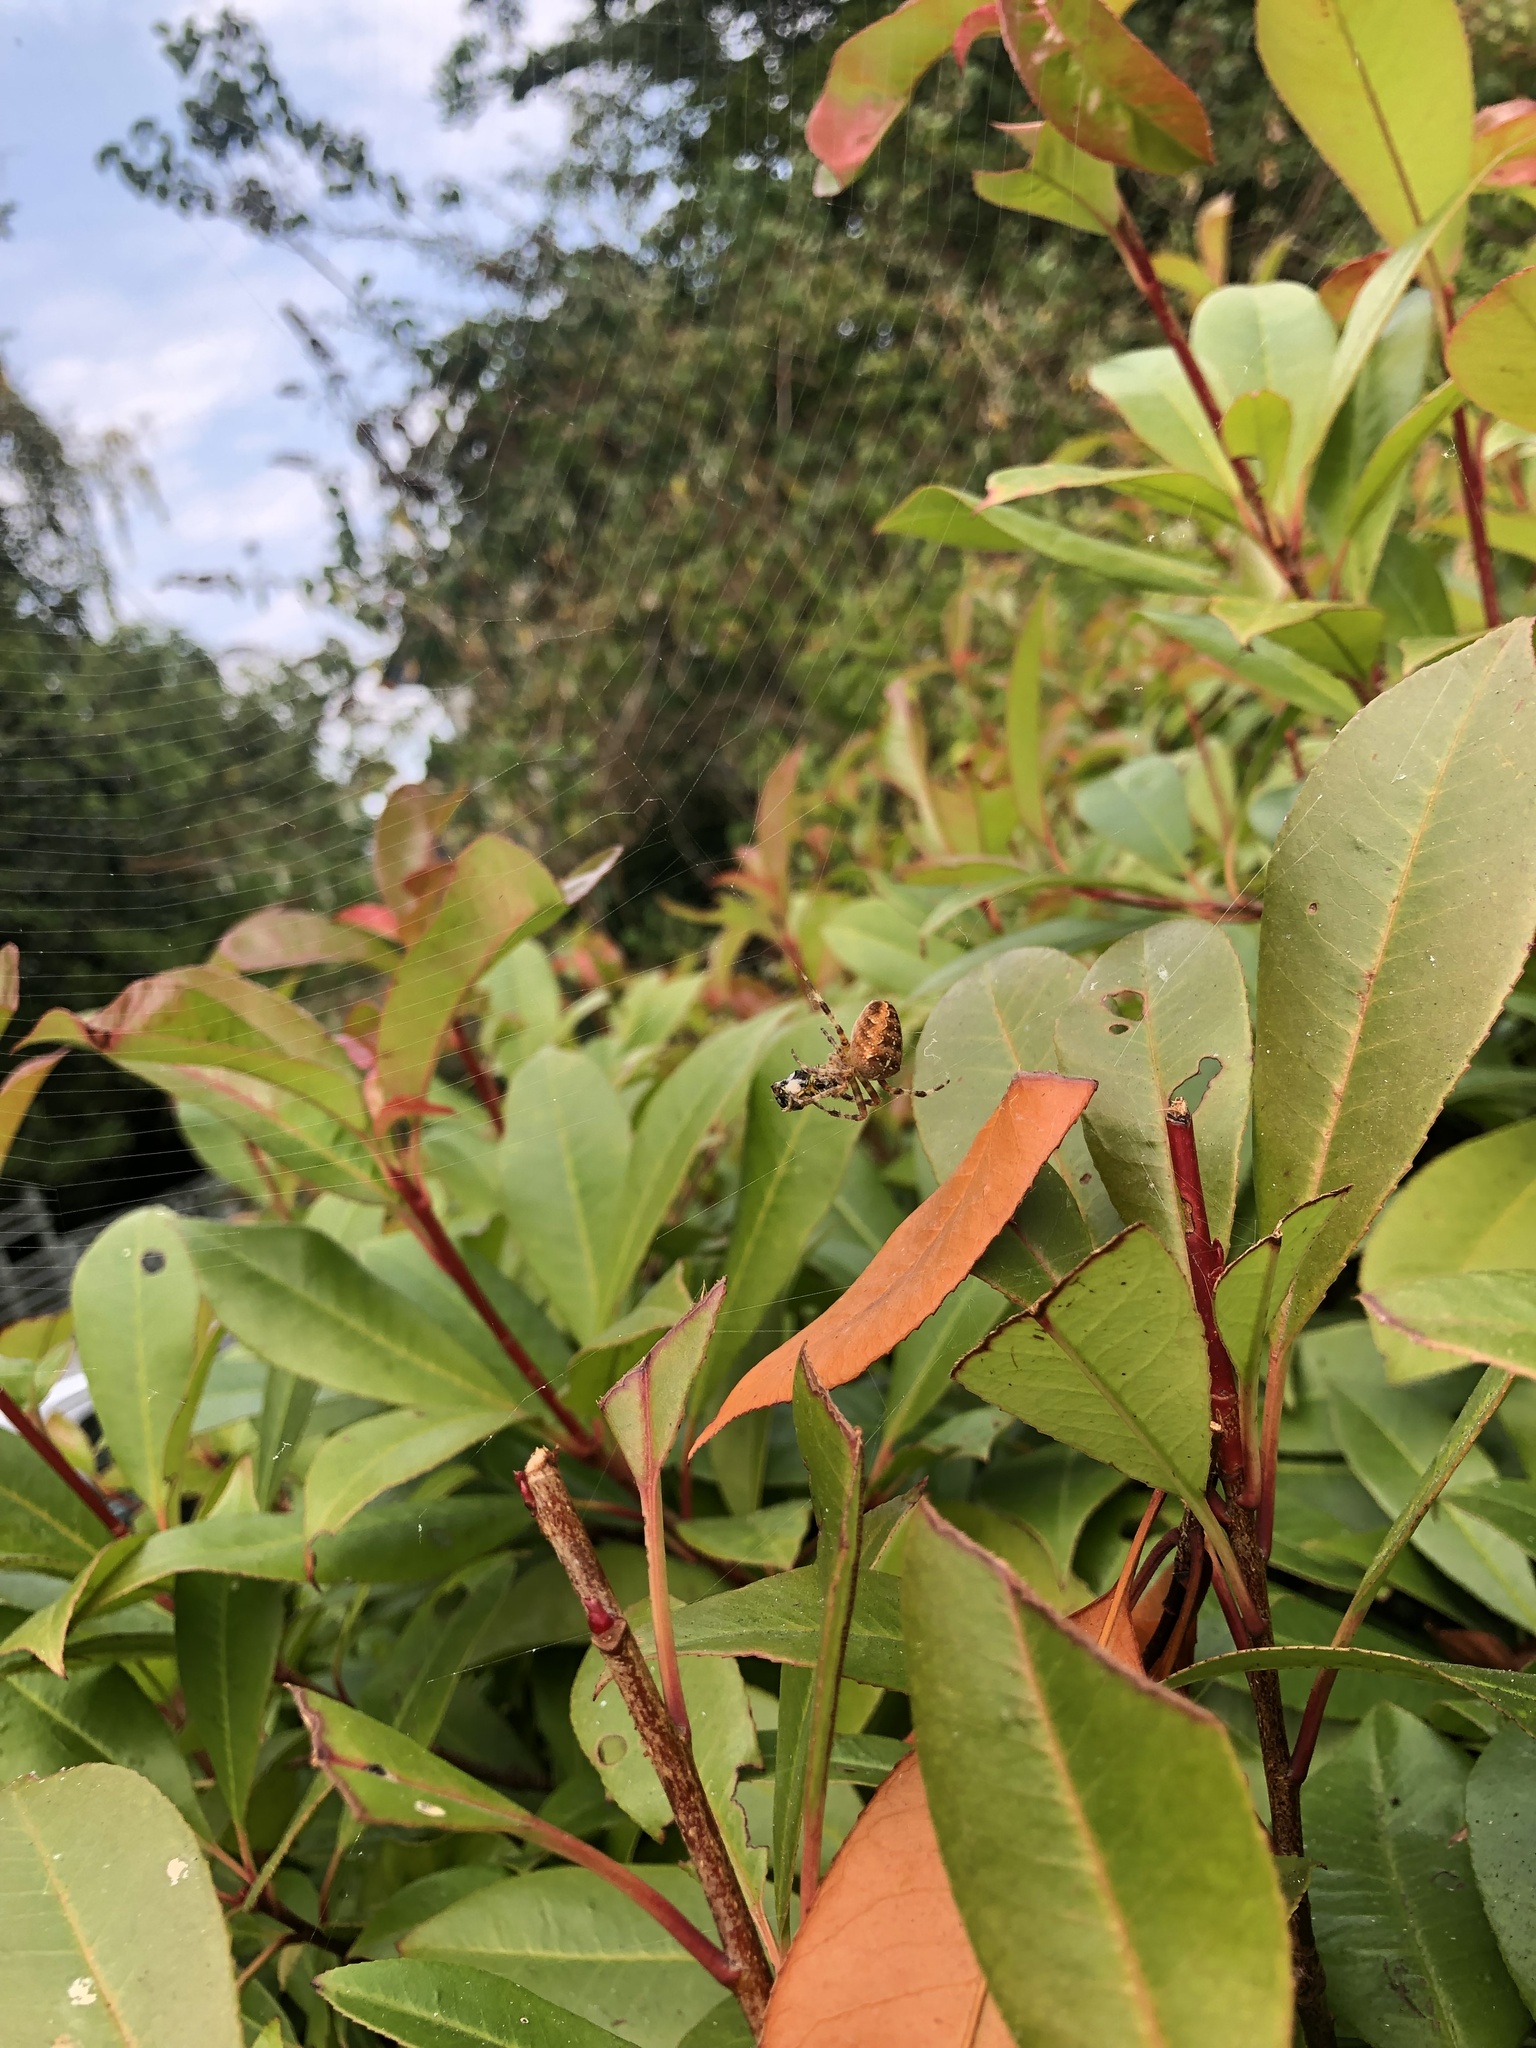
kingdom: Animalia
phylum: Arthropoda
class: Arachnida
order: Araneae
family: Araneidae
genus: Araneus
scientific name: Araneus diadematus
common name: Cross orbweaver
